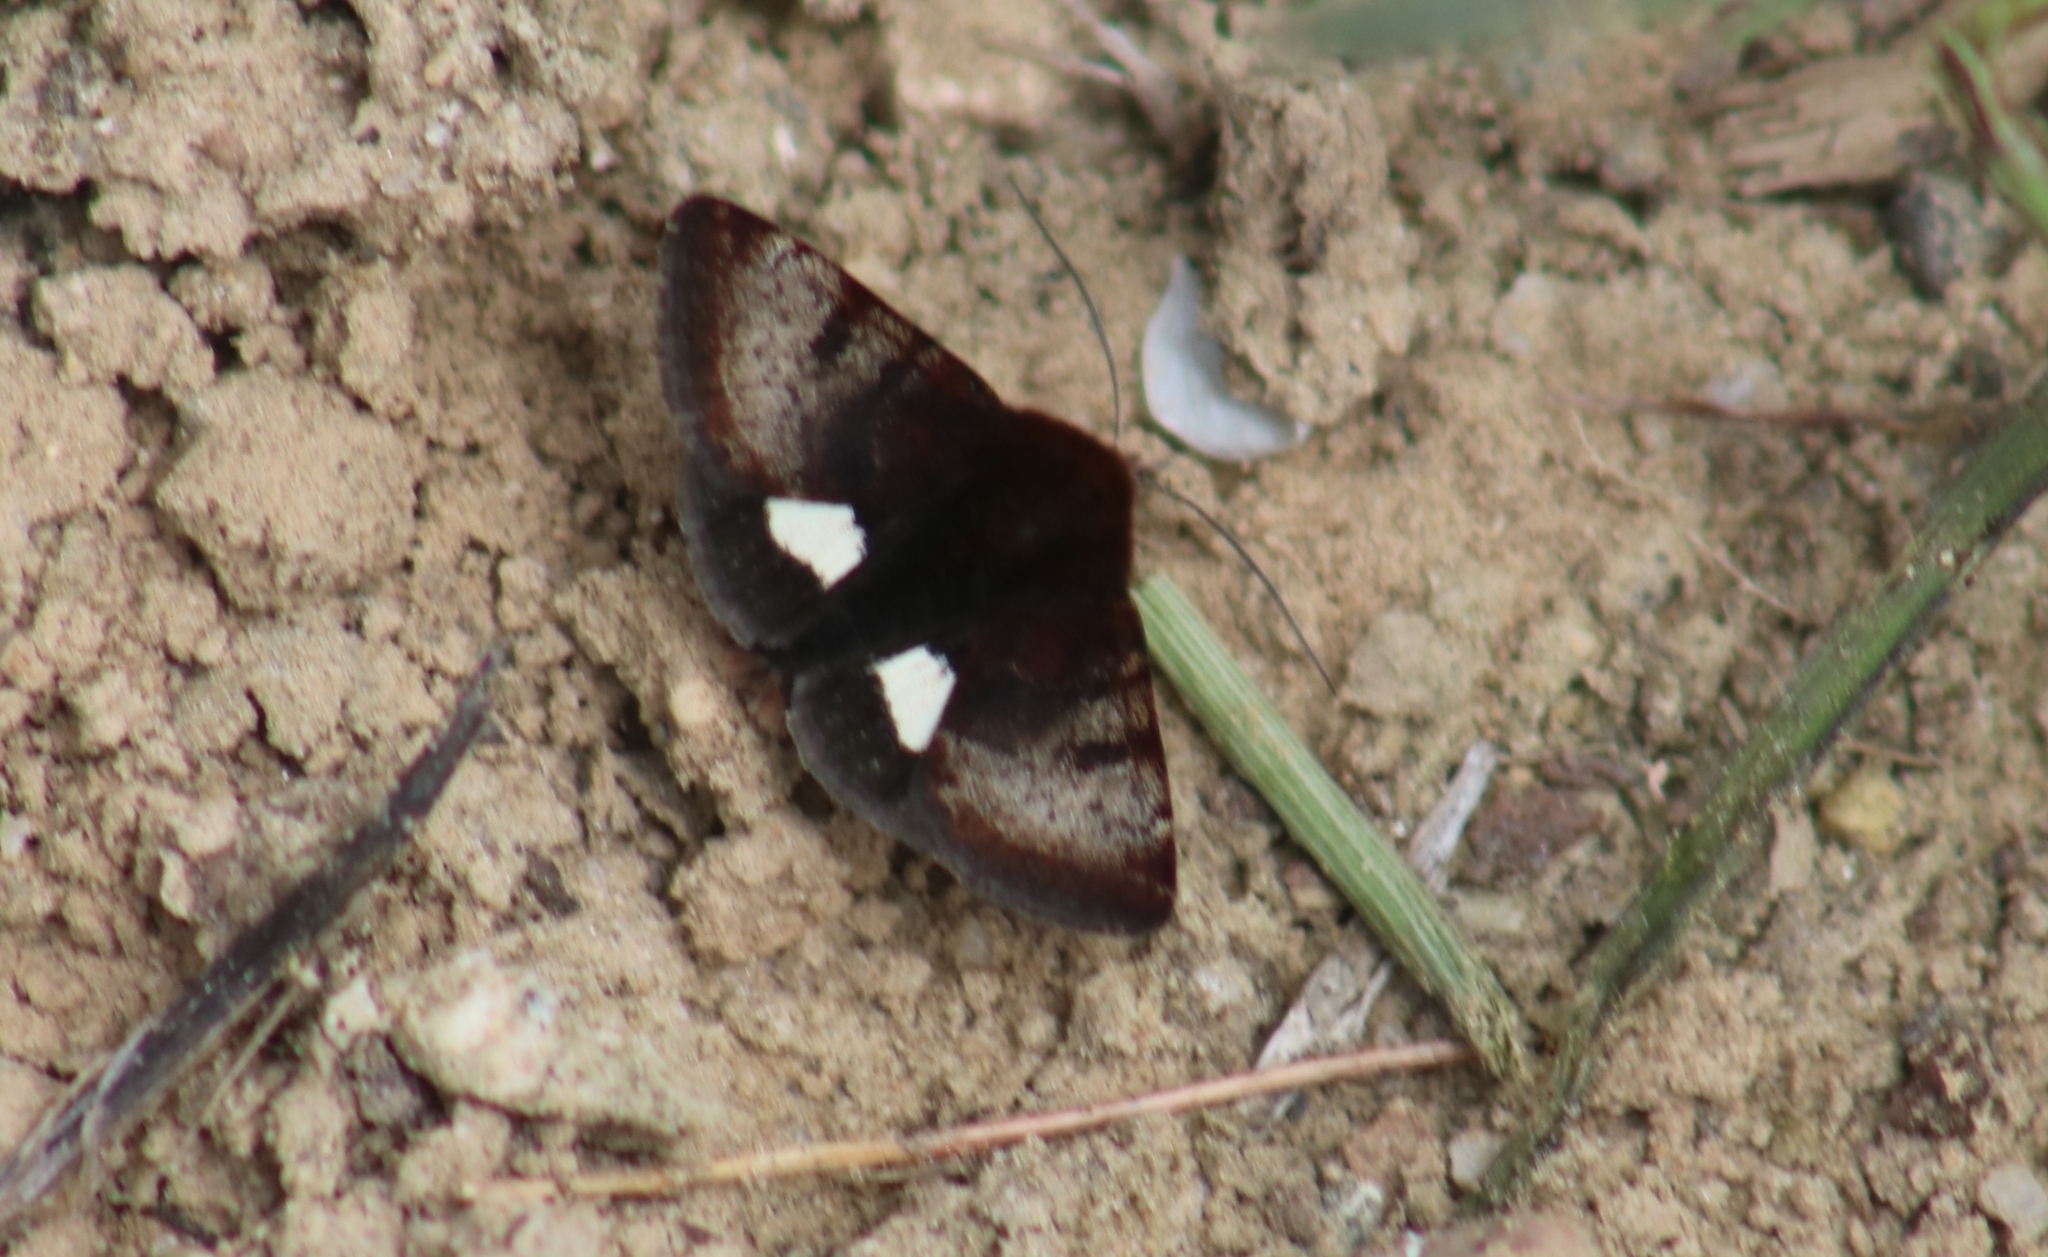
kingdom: Animalia
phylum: Arthropoda
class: Insecta
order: Lepidoptera
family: Noctuidae
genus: Heliothis
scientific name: Heliothis borealis
